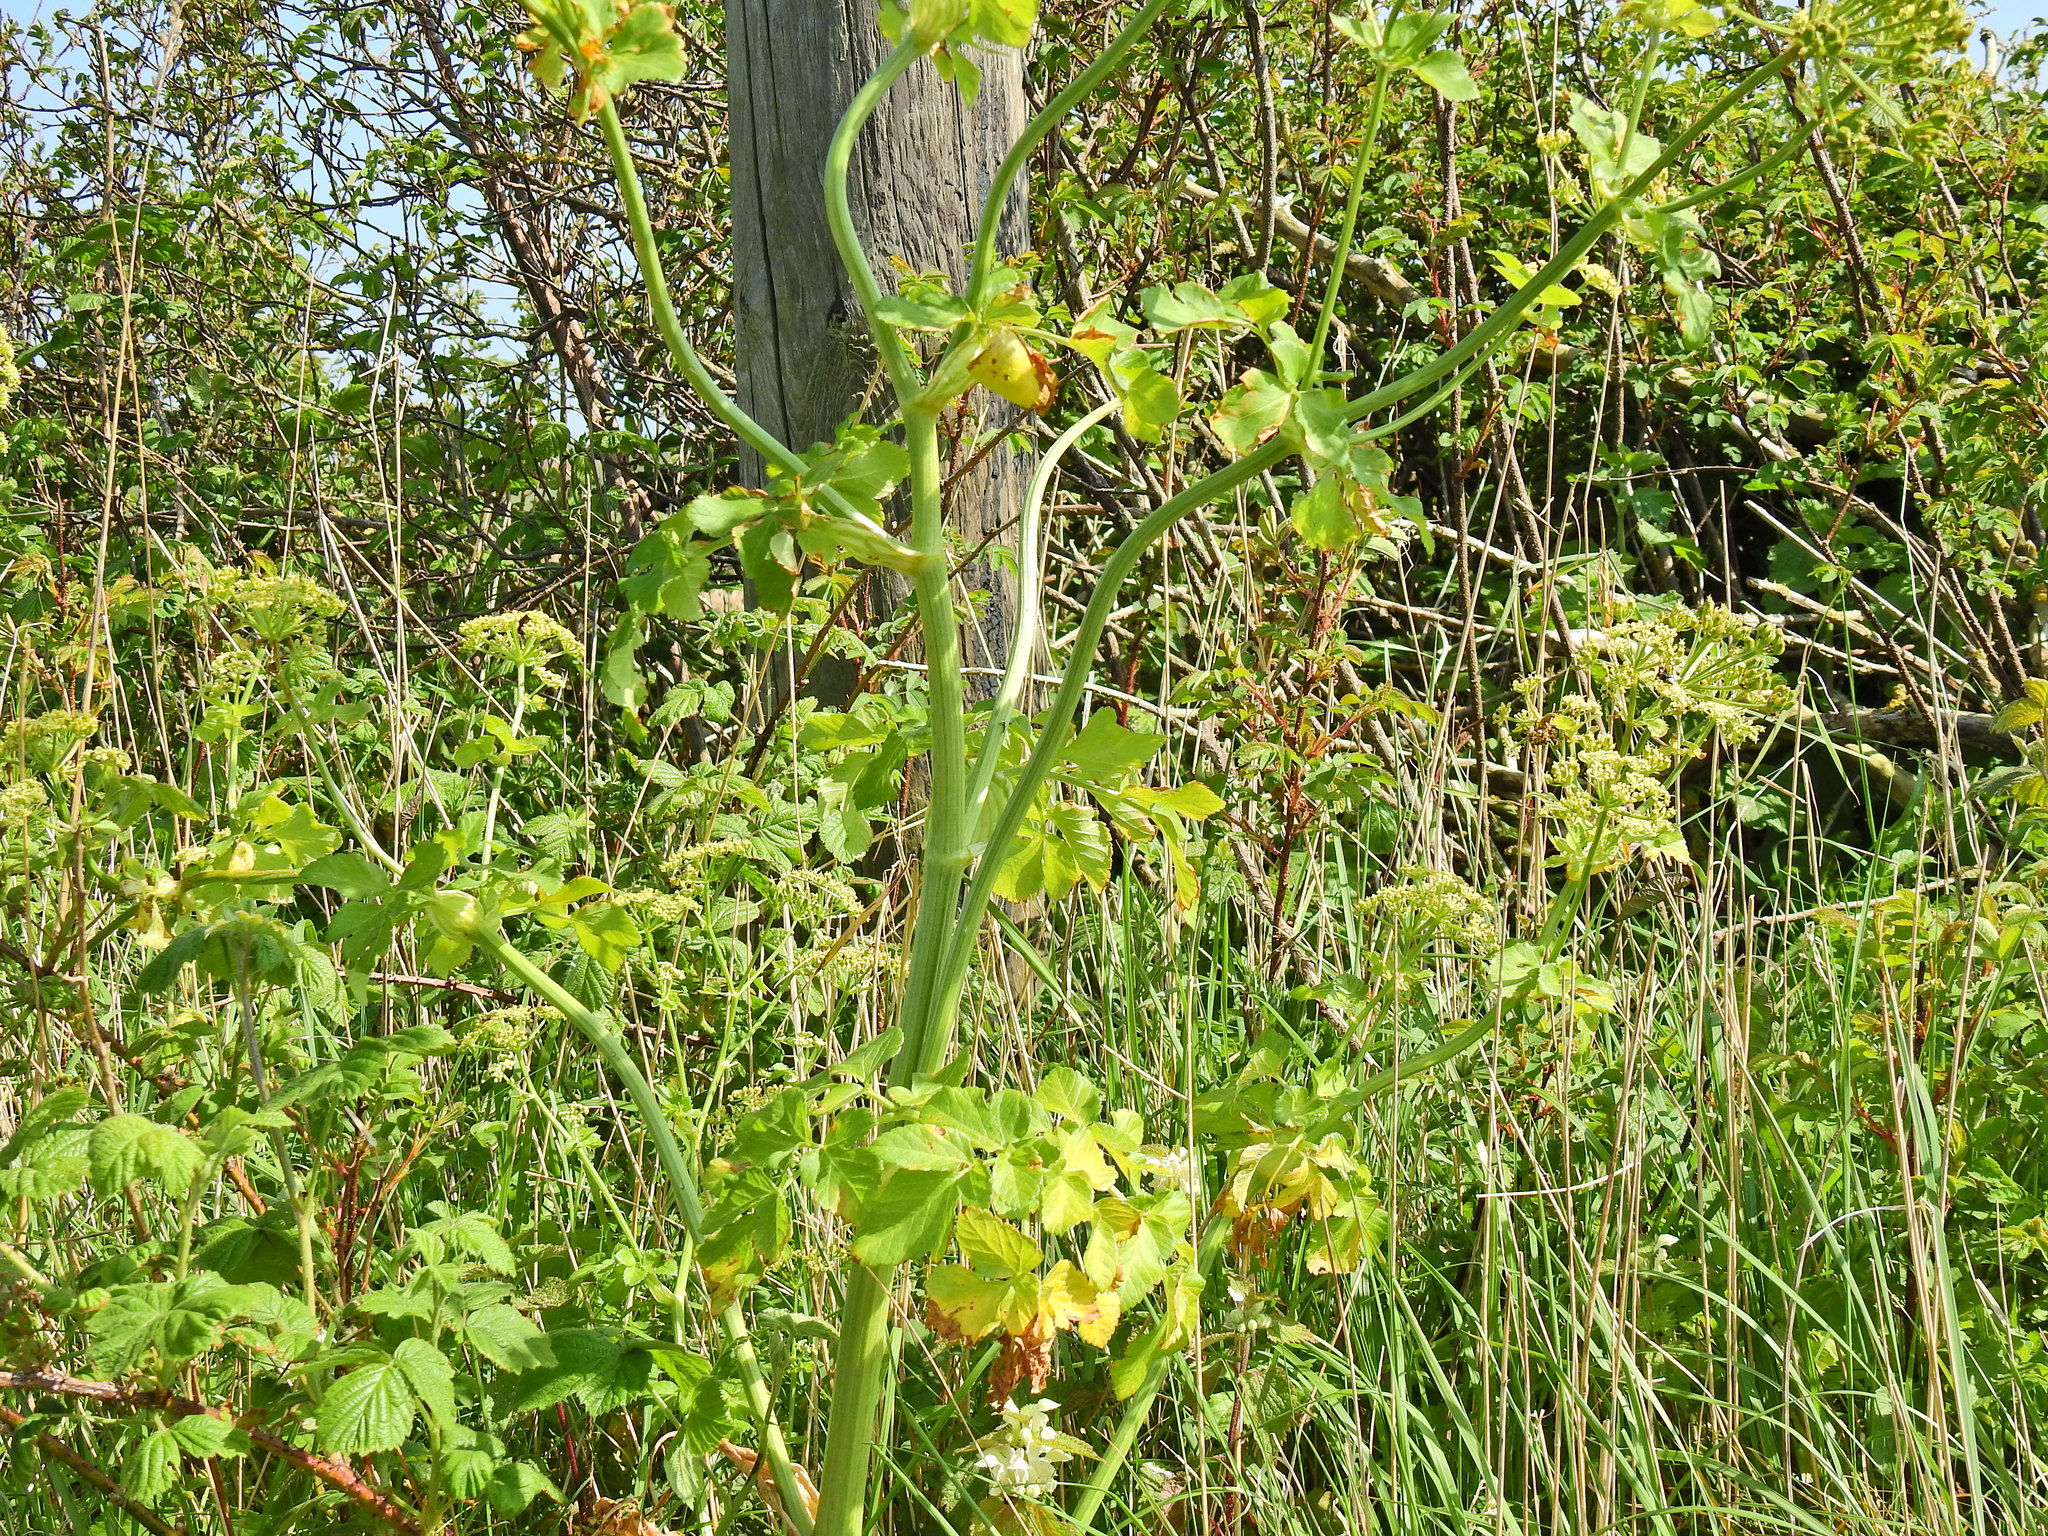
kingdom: Plantae
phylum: Tracheophyta
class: Magnoliopsida
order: Apiales
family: Apiaceae
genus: Smyrnium
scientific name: Smyrnium olusatrum
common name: Alexanders
